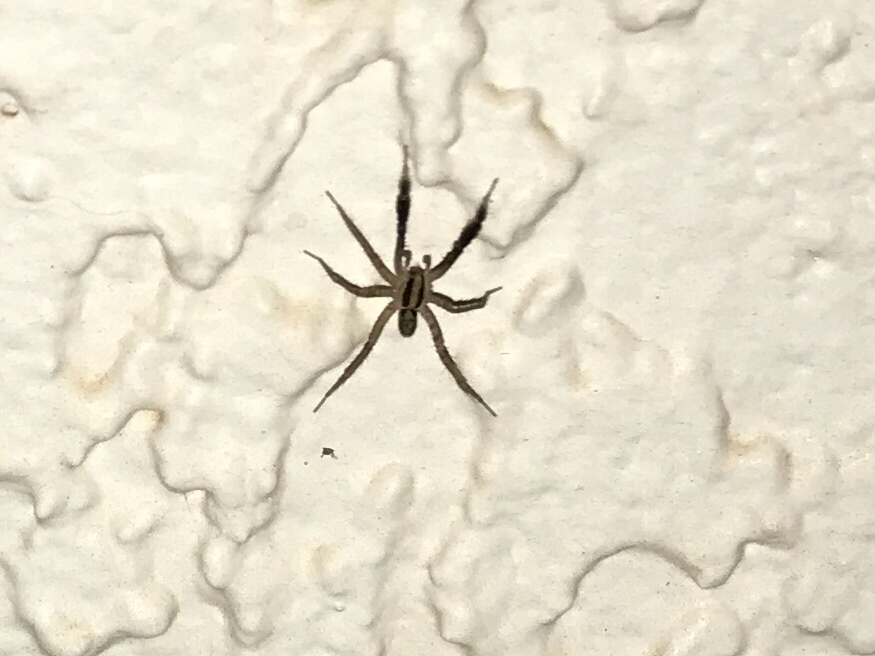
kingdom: Animalia
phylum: Arthropoda
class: Arachnida
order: Araneae
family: Lycosidae
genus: Camptocosa
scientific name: Camptocosa parallela
